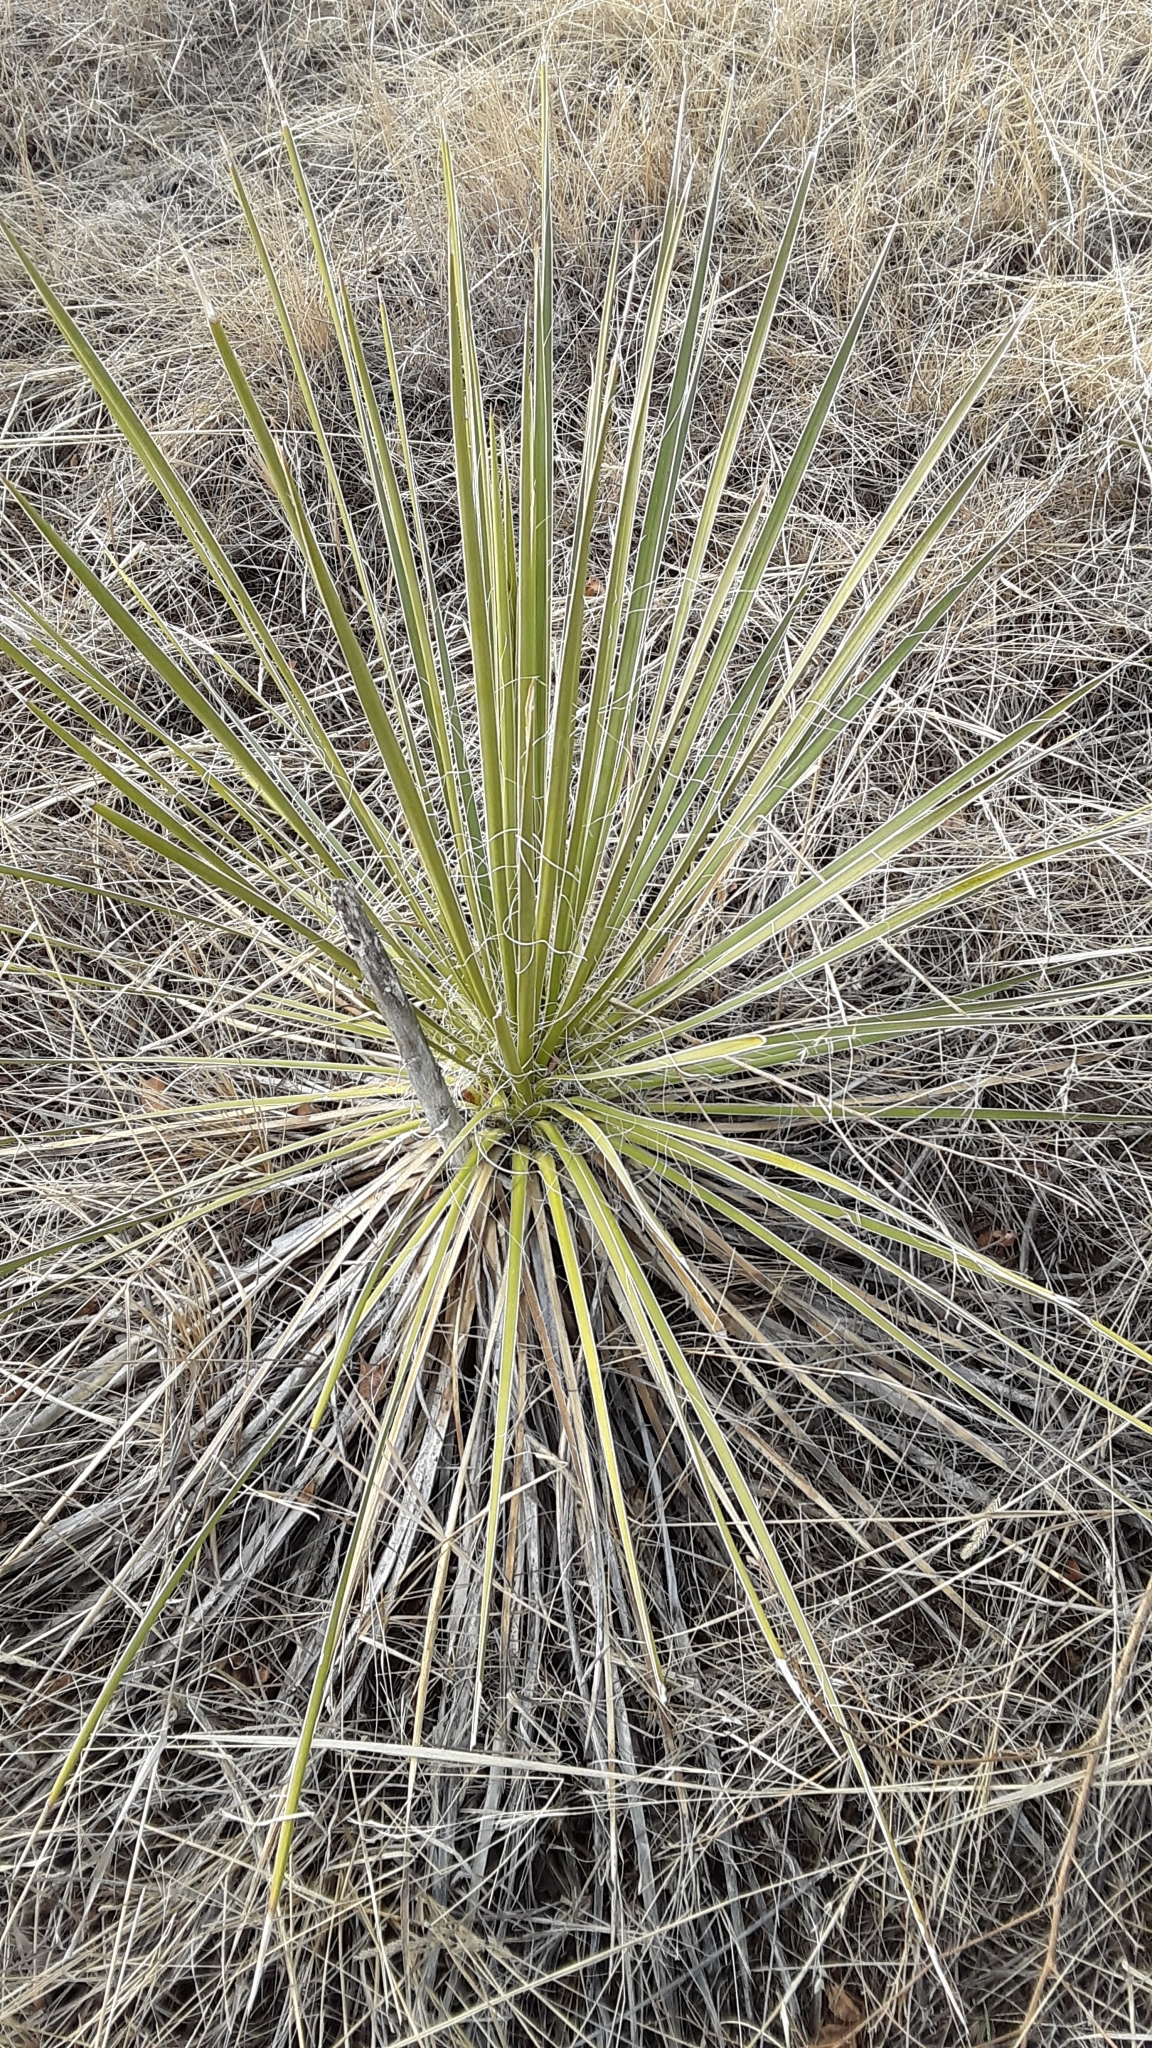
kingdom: Plantae
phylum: Tracheophyta
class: Liliopsida
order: Asparagales
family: Asparagaceae
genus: Yucca
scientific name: Yucca glauca
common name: Great plains yucca
